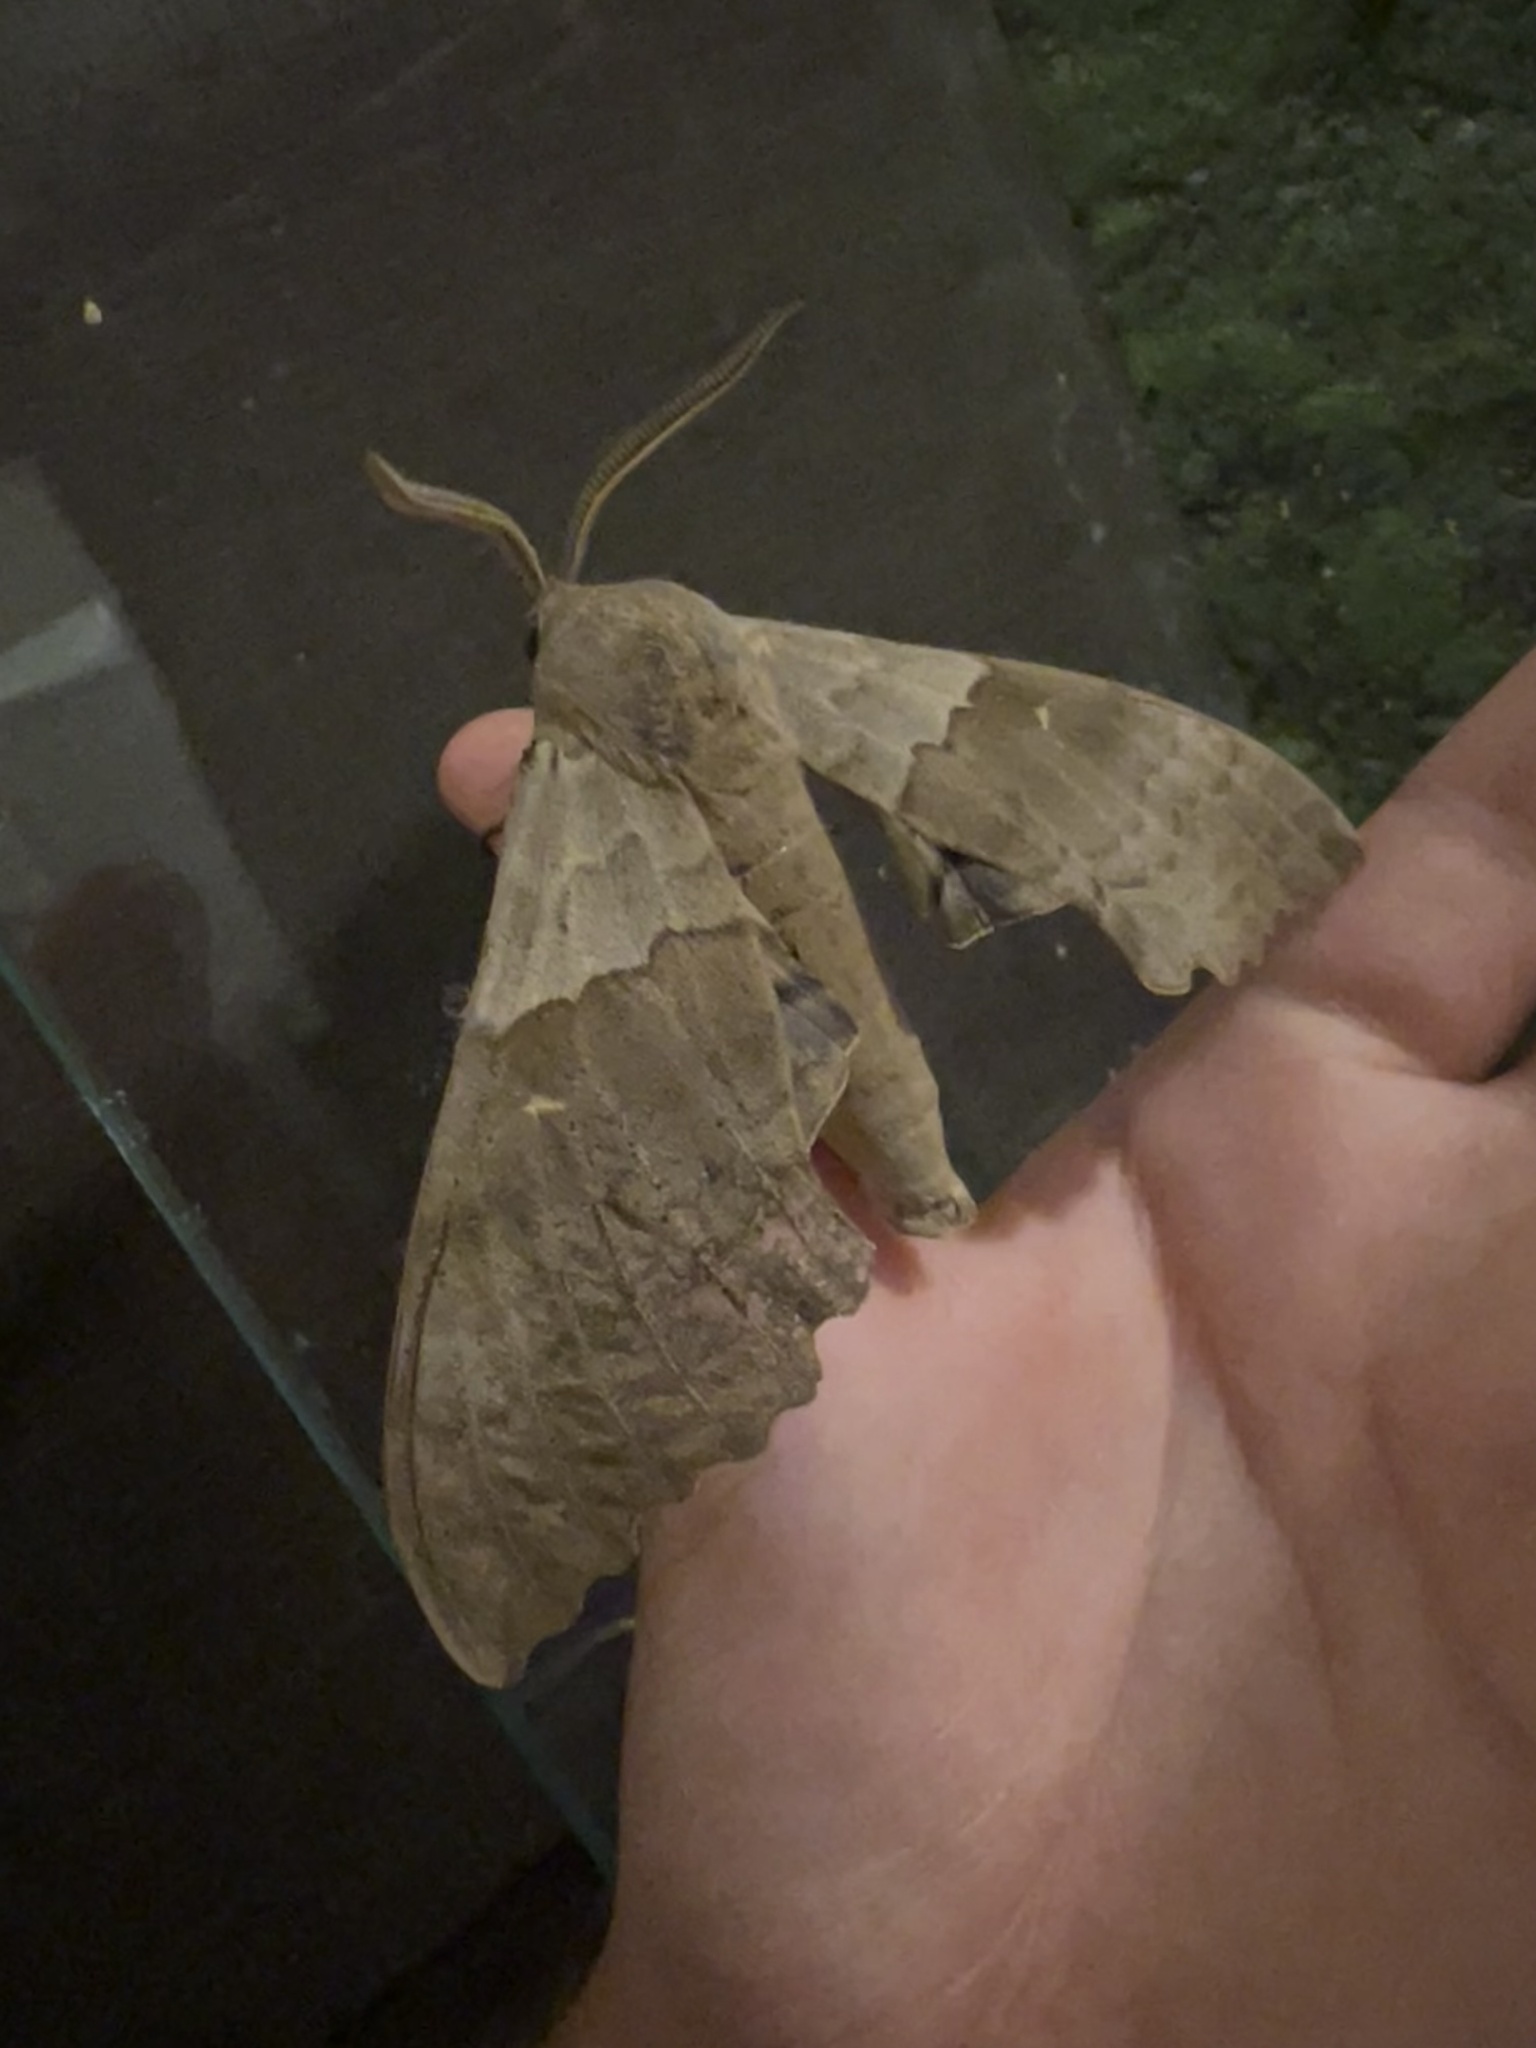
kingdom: Animalia
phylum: Arthropoda
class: Insecta
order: Lepidoptera
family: Sphingidae
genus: Pachysphinx
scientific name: Pachysphinx modesta
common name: Big poplar sphinx
